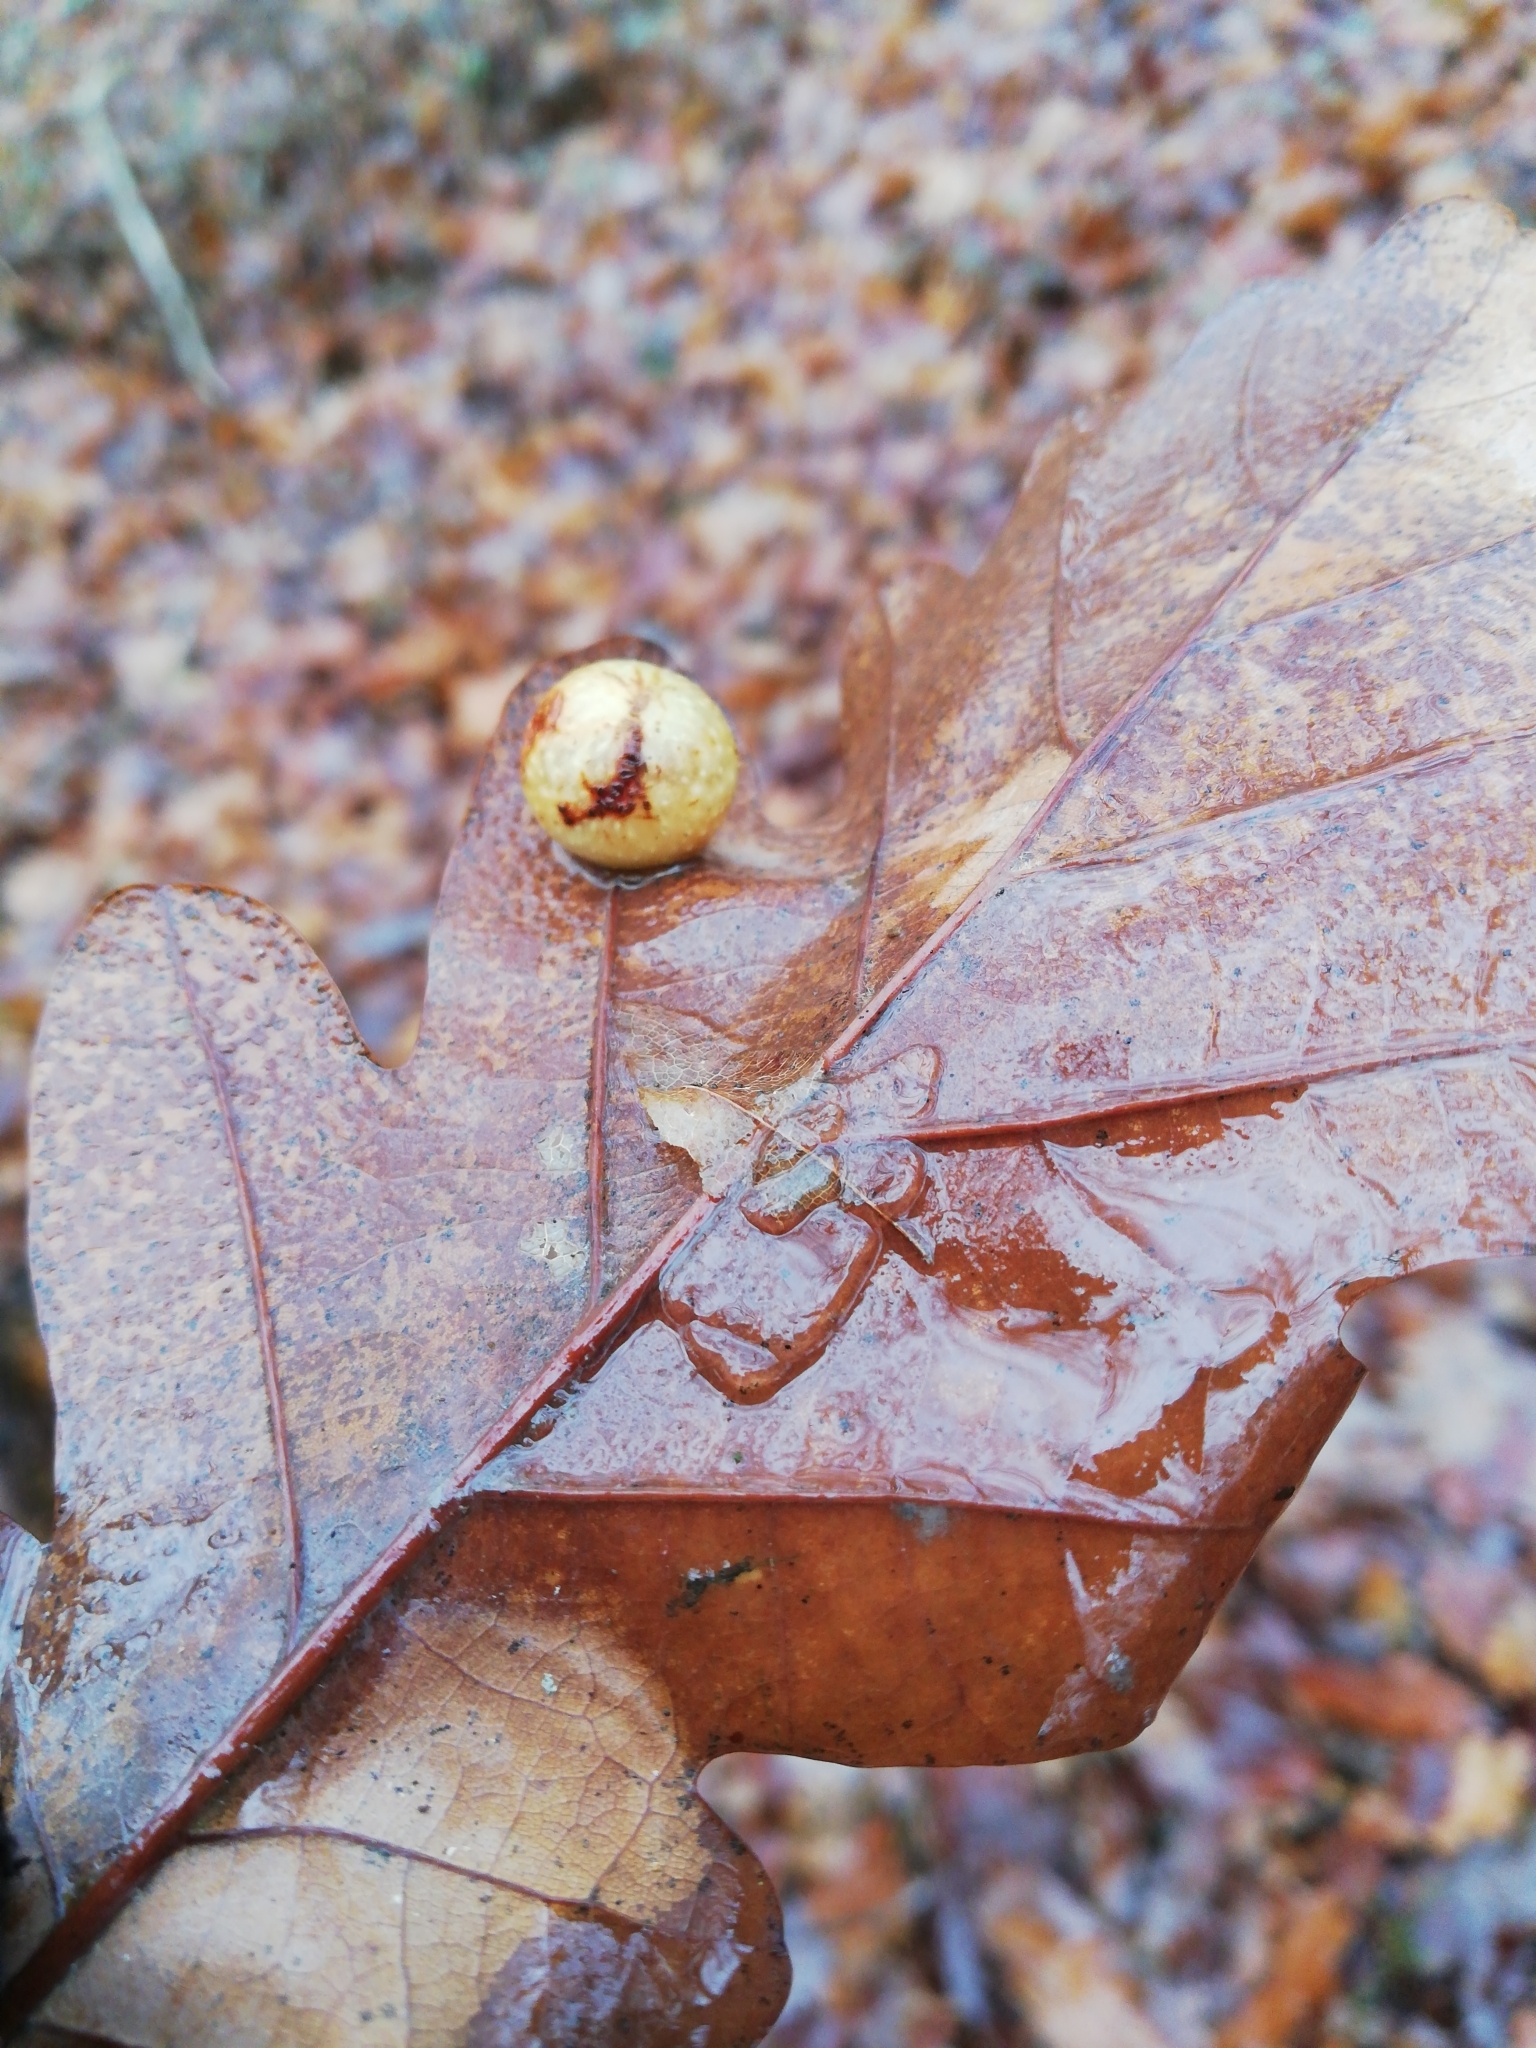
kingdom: Animalia
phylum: Arthropoda
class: Insecta
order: Hymenoptera
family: Cynipidae
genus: Cynips
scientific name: Cynips quercusfolii
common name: Cherry gall
